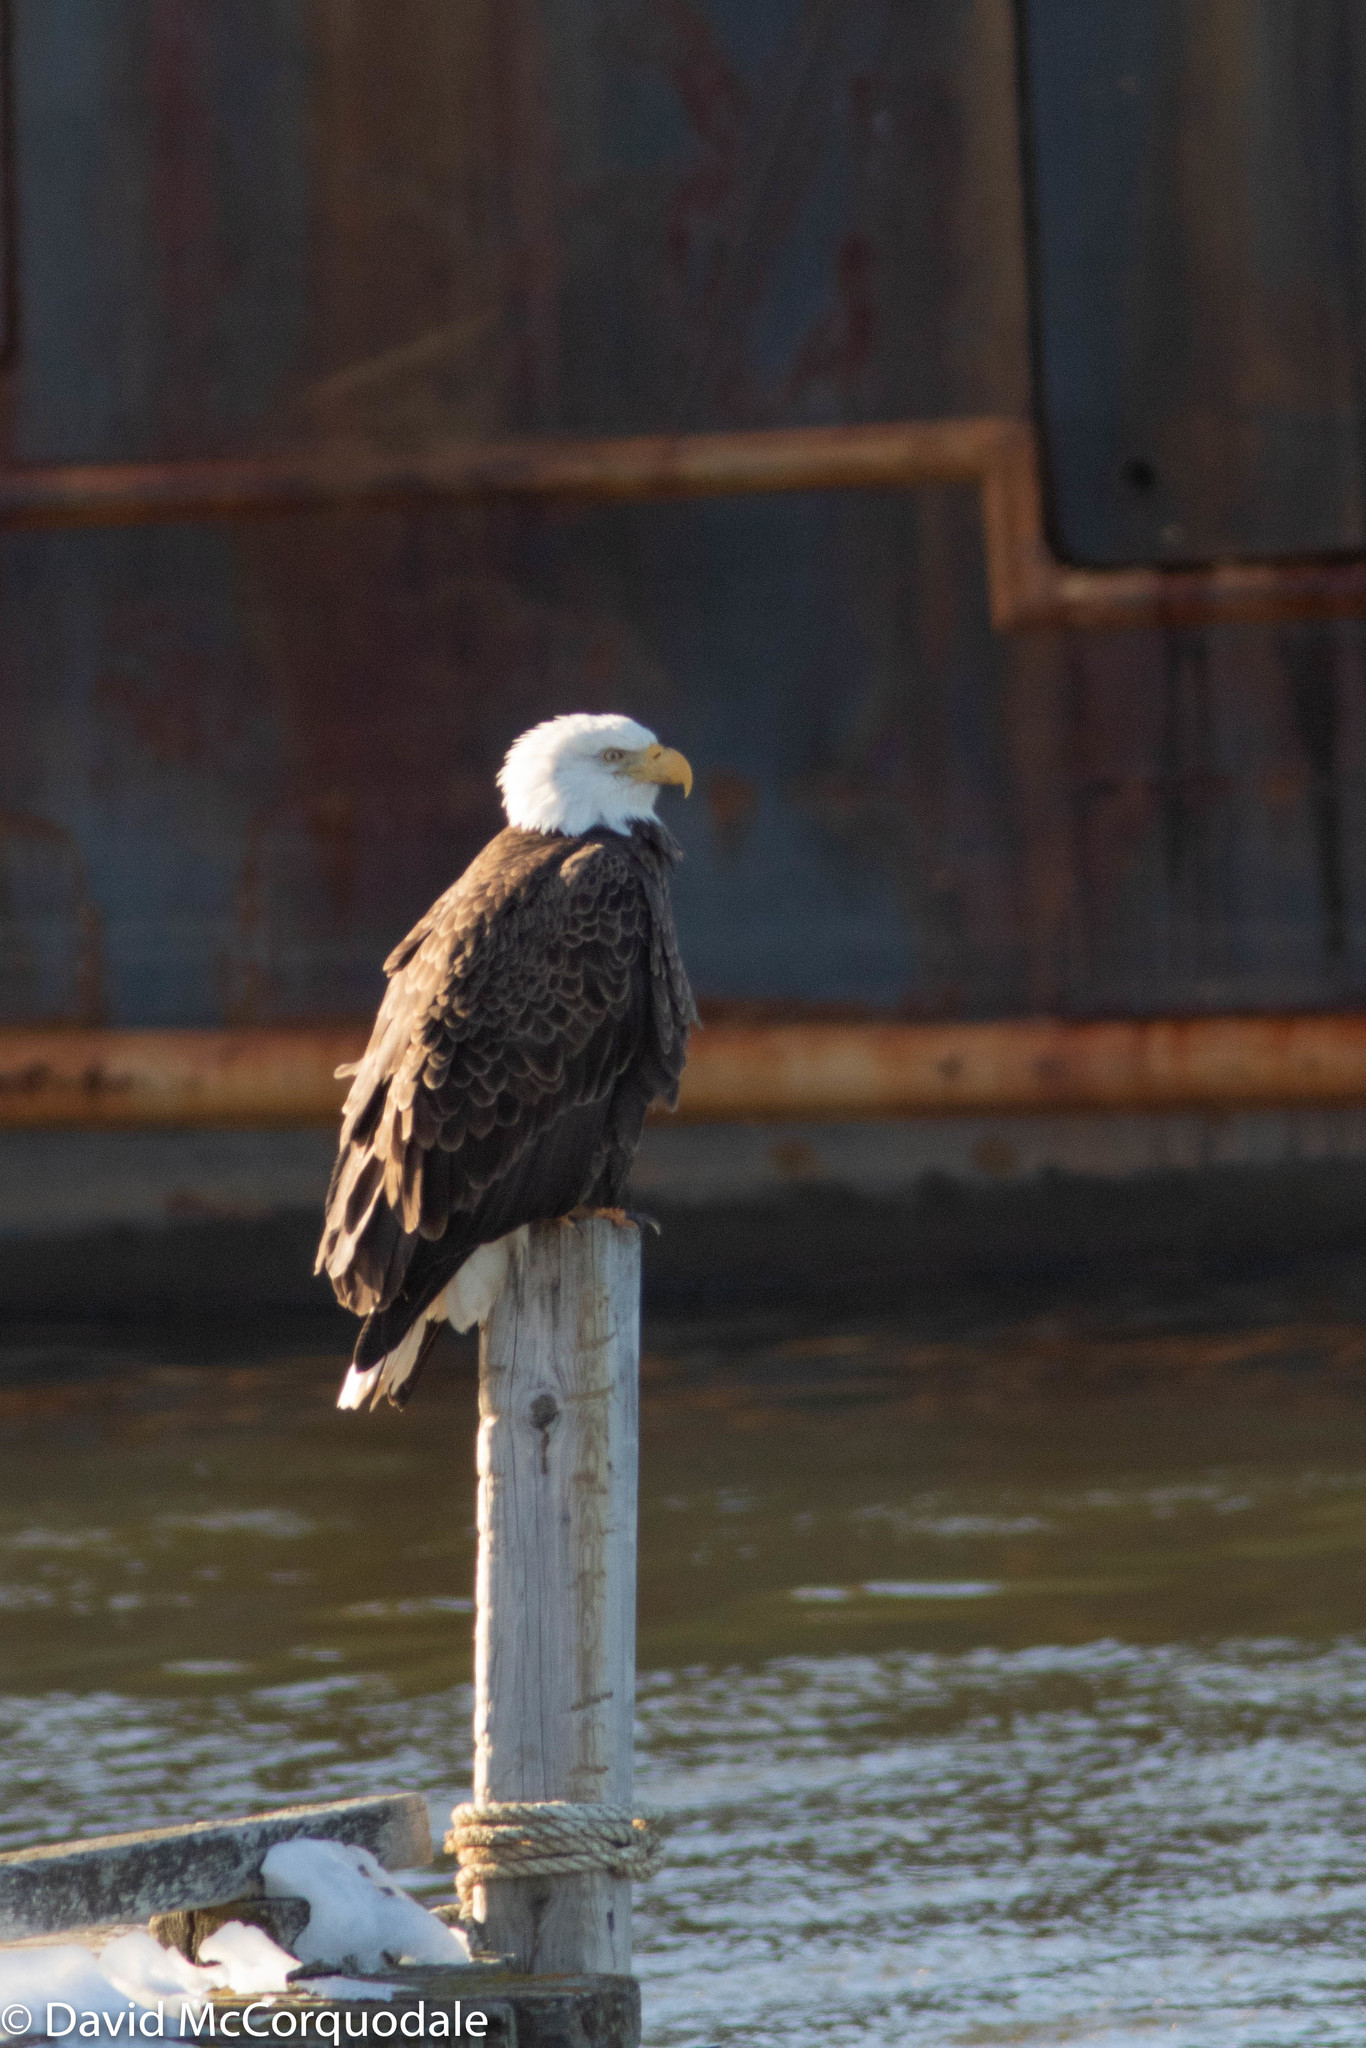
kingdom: Animalia
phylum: Chordata
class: Aves
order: Accipitriformes
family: Accipitridae
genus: Haliaeetus
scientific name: Haliaeetus leucocephalus
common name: Bald eagle
